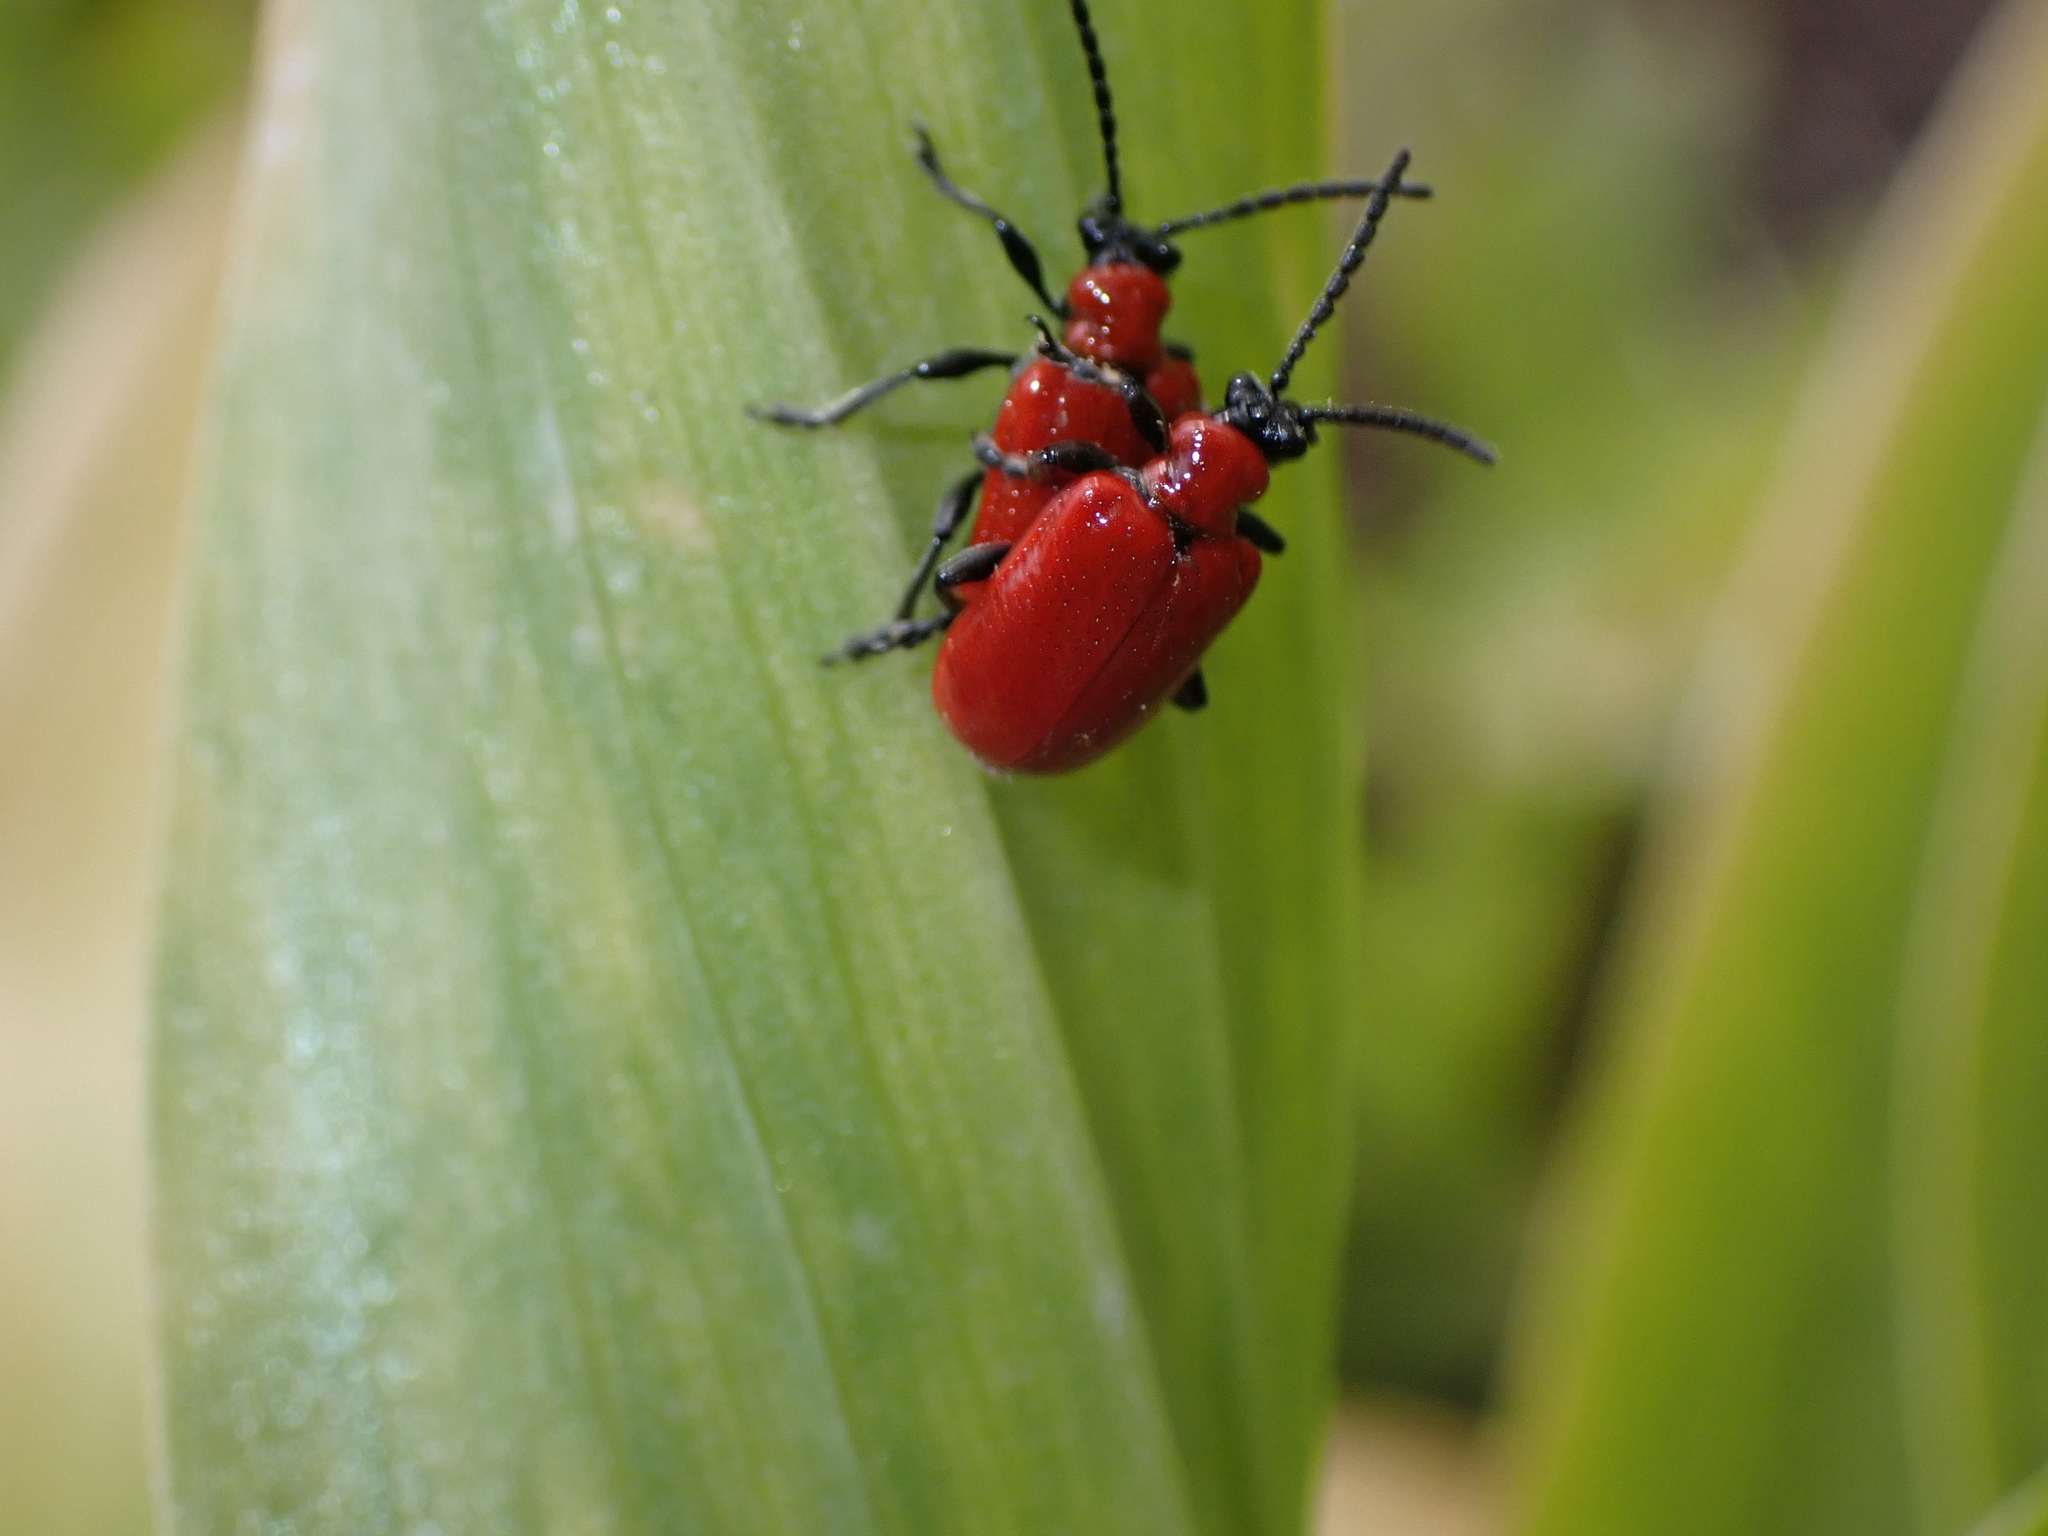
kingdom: Animalia
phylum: Arthropoda
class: Insecta
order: Coleoptera
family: Chrysomelidae
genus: Lilioceris
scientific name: Lilioceris lilii
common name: Lily beetle
